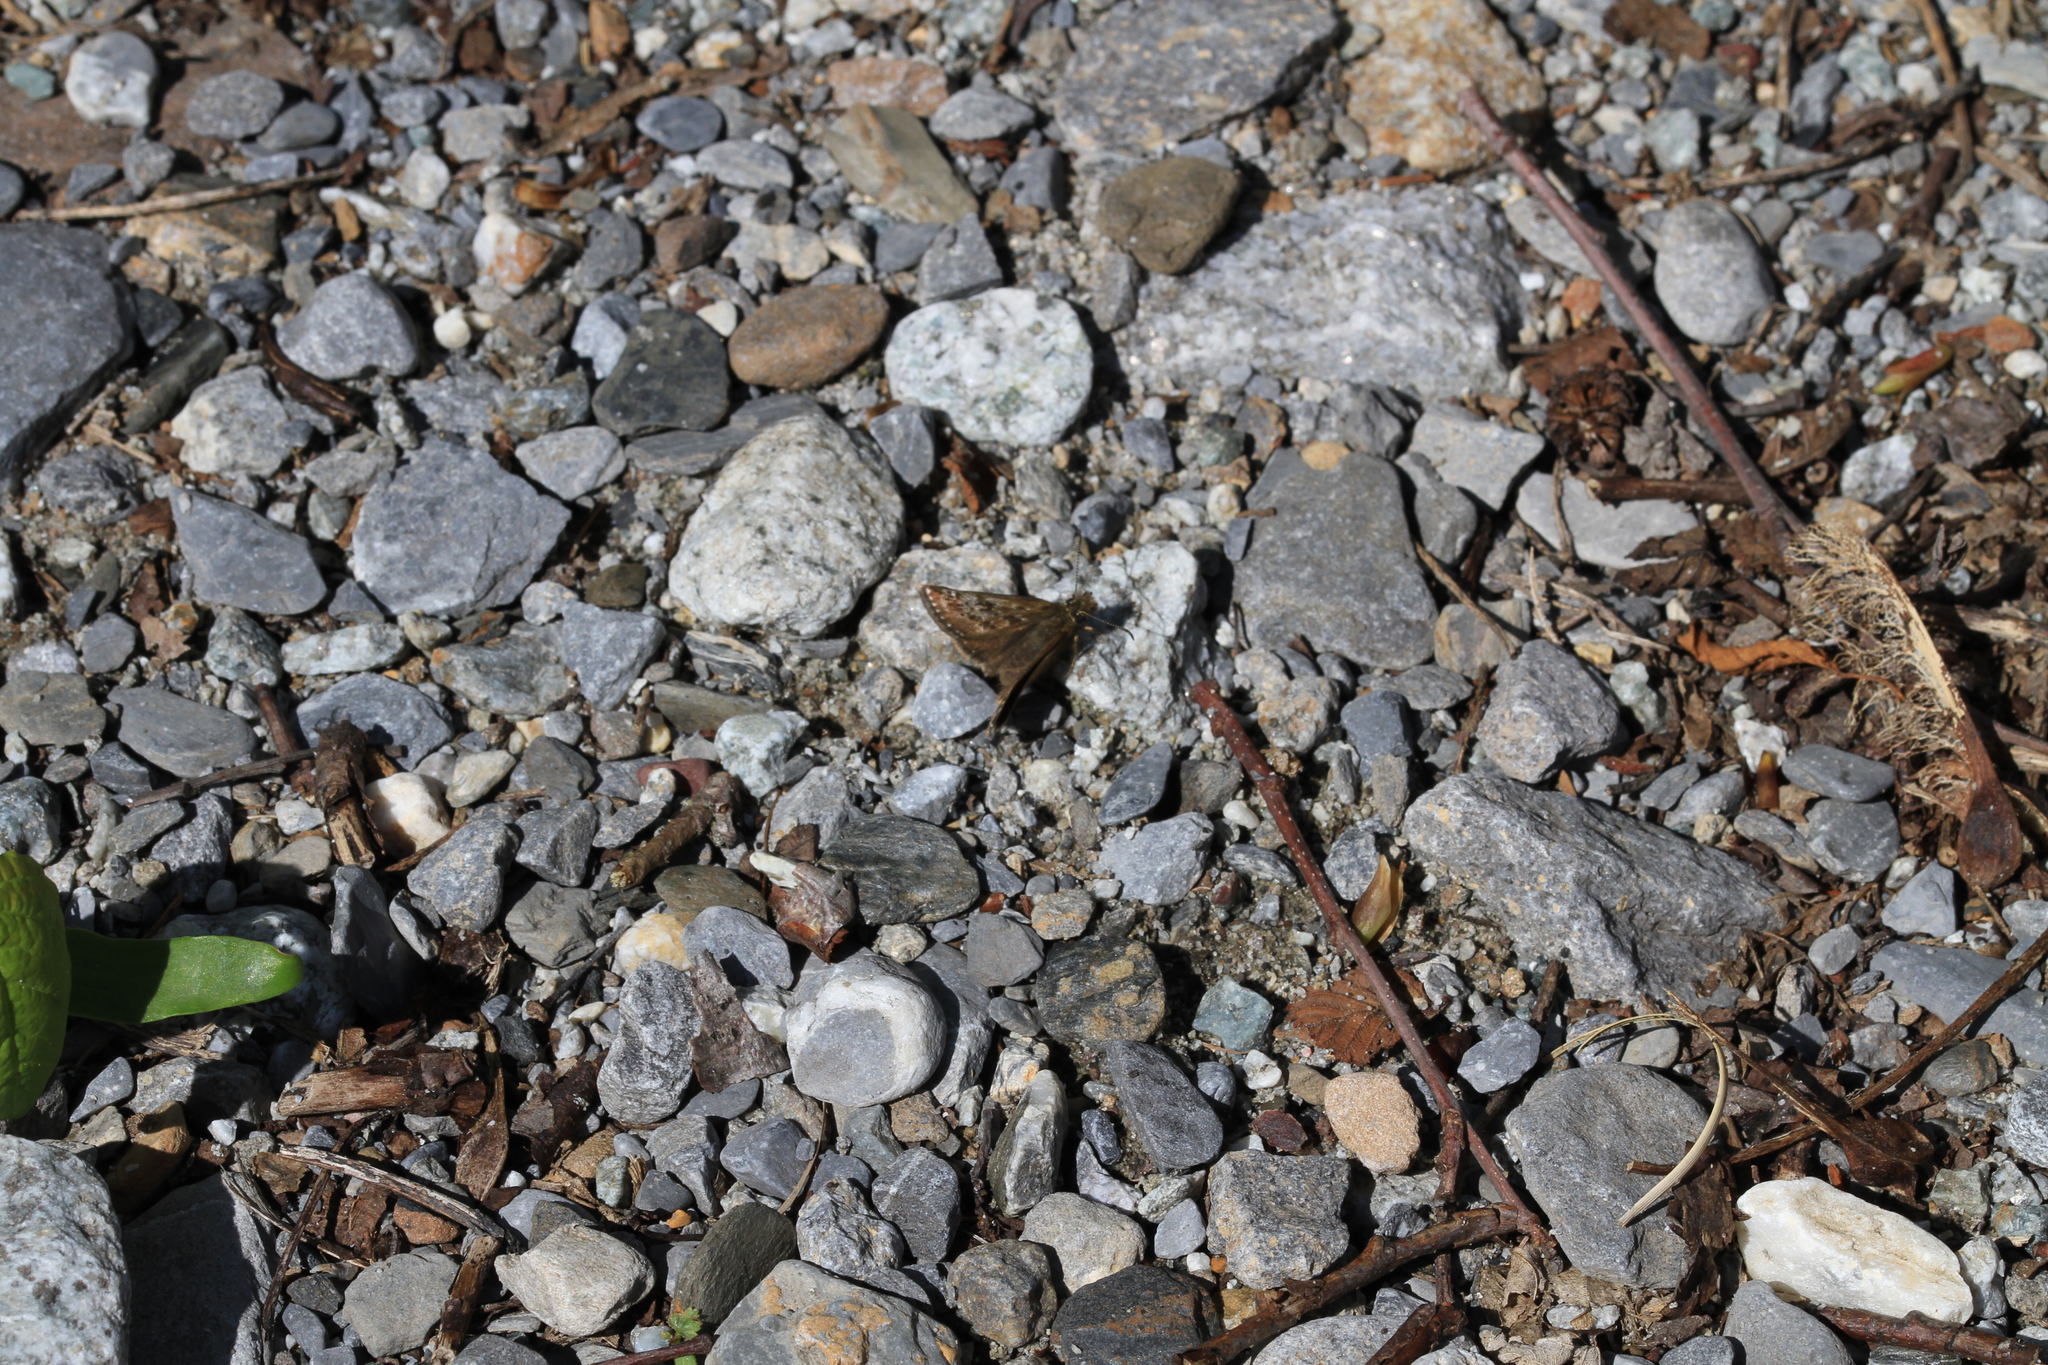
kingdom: Animalia
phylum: Arthropoda
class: Insecta
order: Lepidoptera
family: Hesperiidae
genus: Erynnis
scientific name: Erynnis tages
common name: Dingy skipper
